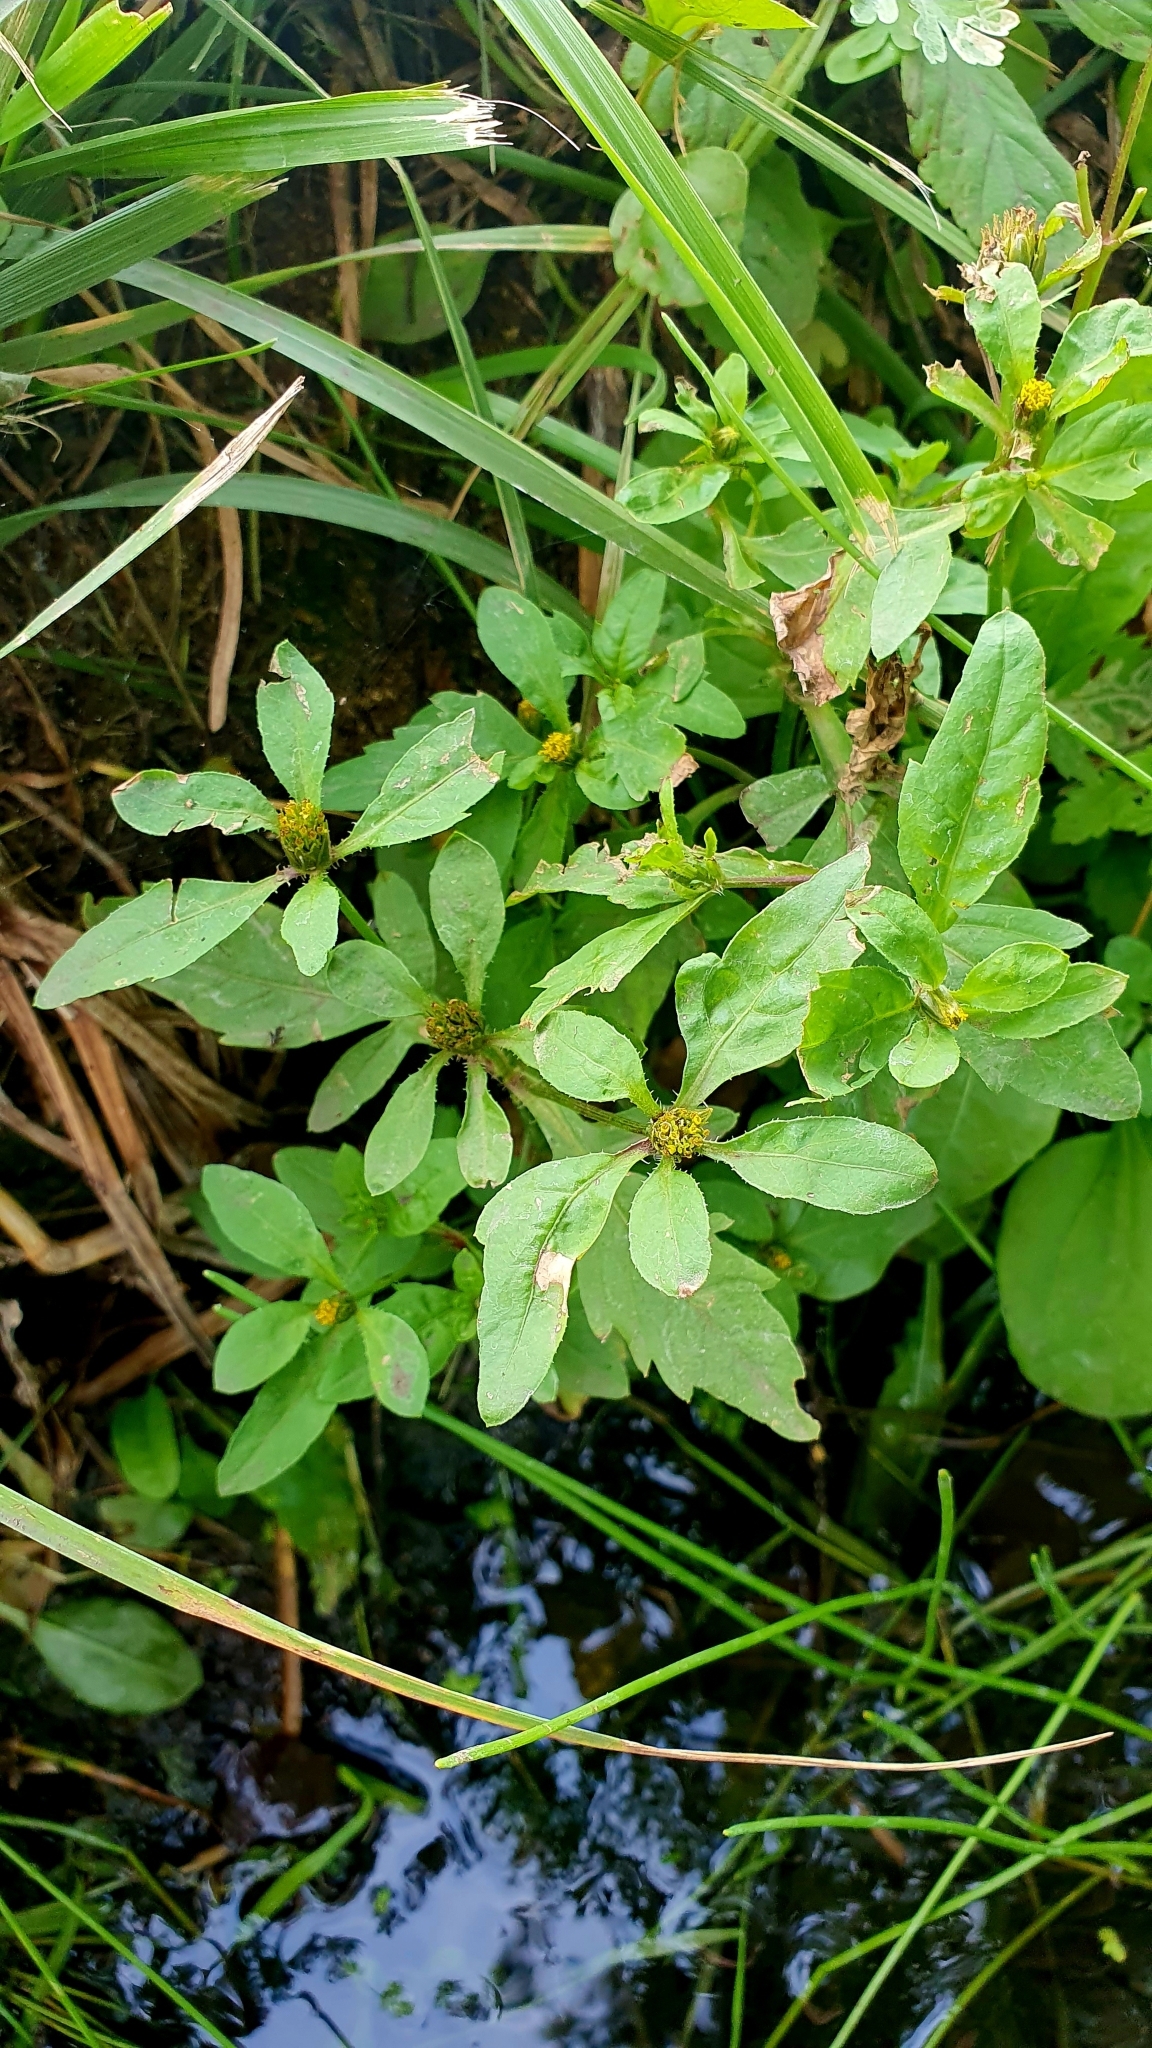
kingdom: Plantae
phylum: Tracheophyta
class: Magnoliopsida
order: Asterales
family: Asteraceae
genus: Bidens
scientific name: Bidens tripartita
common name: Trifid bur-marigold
